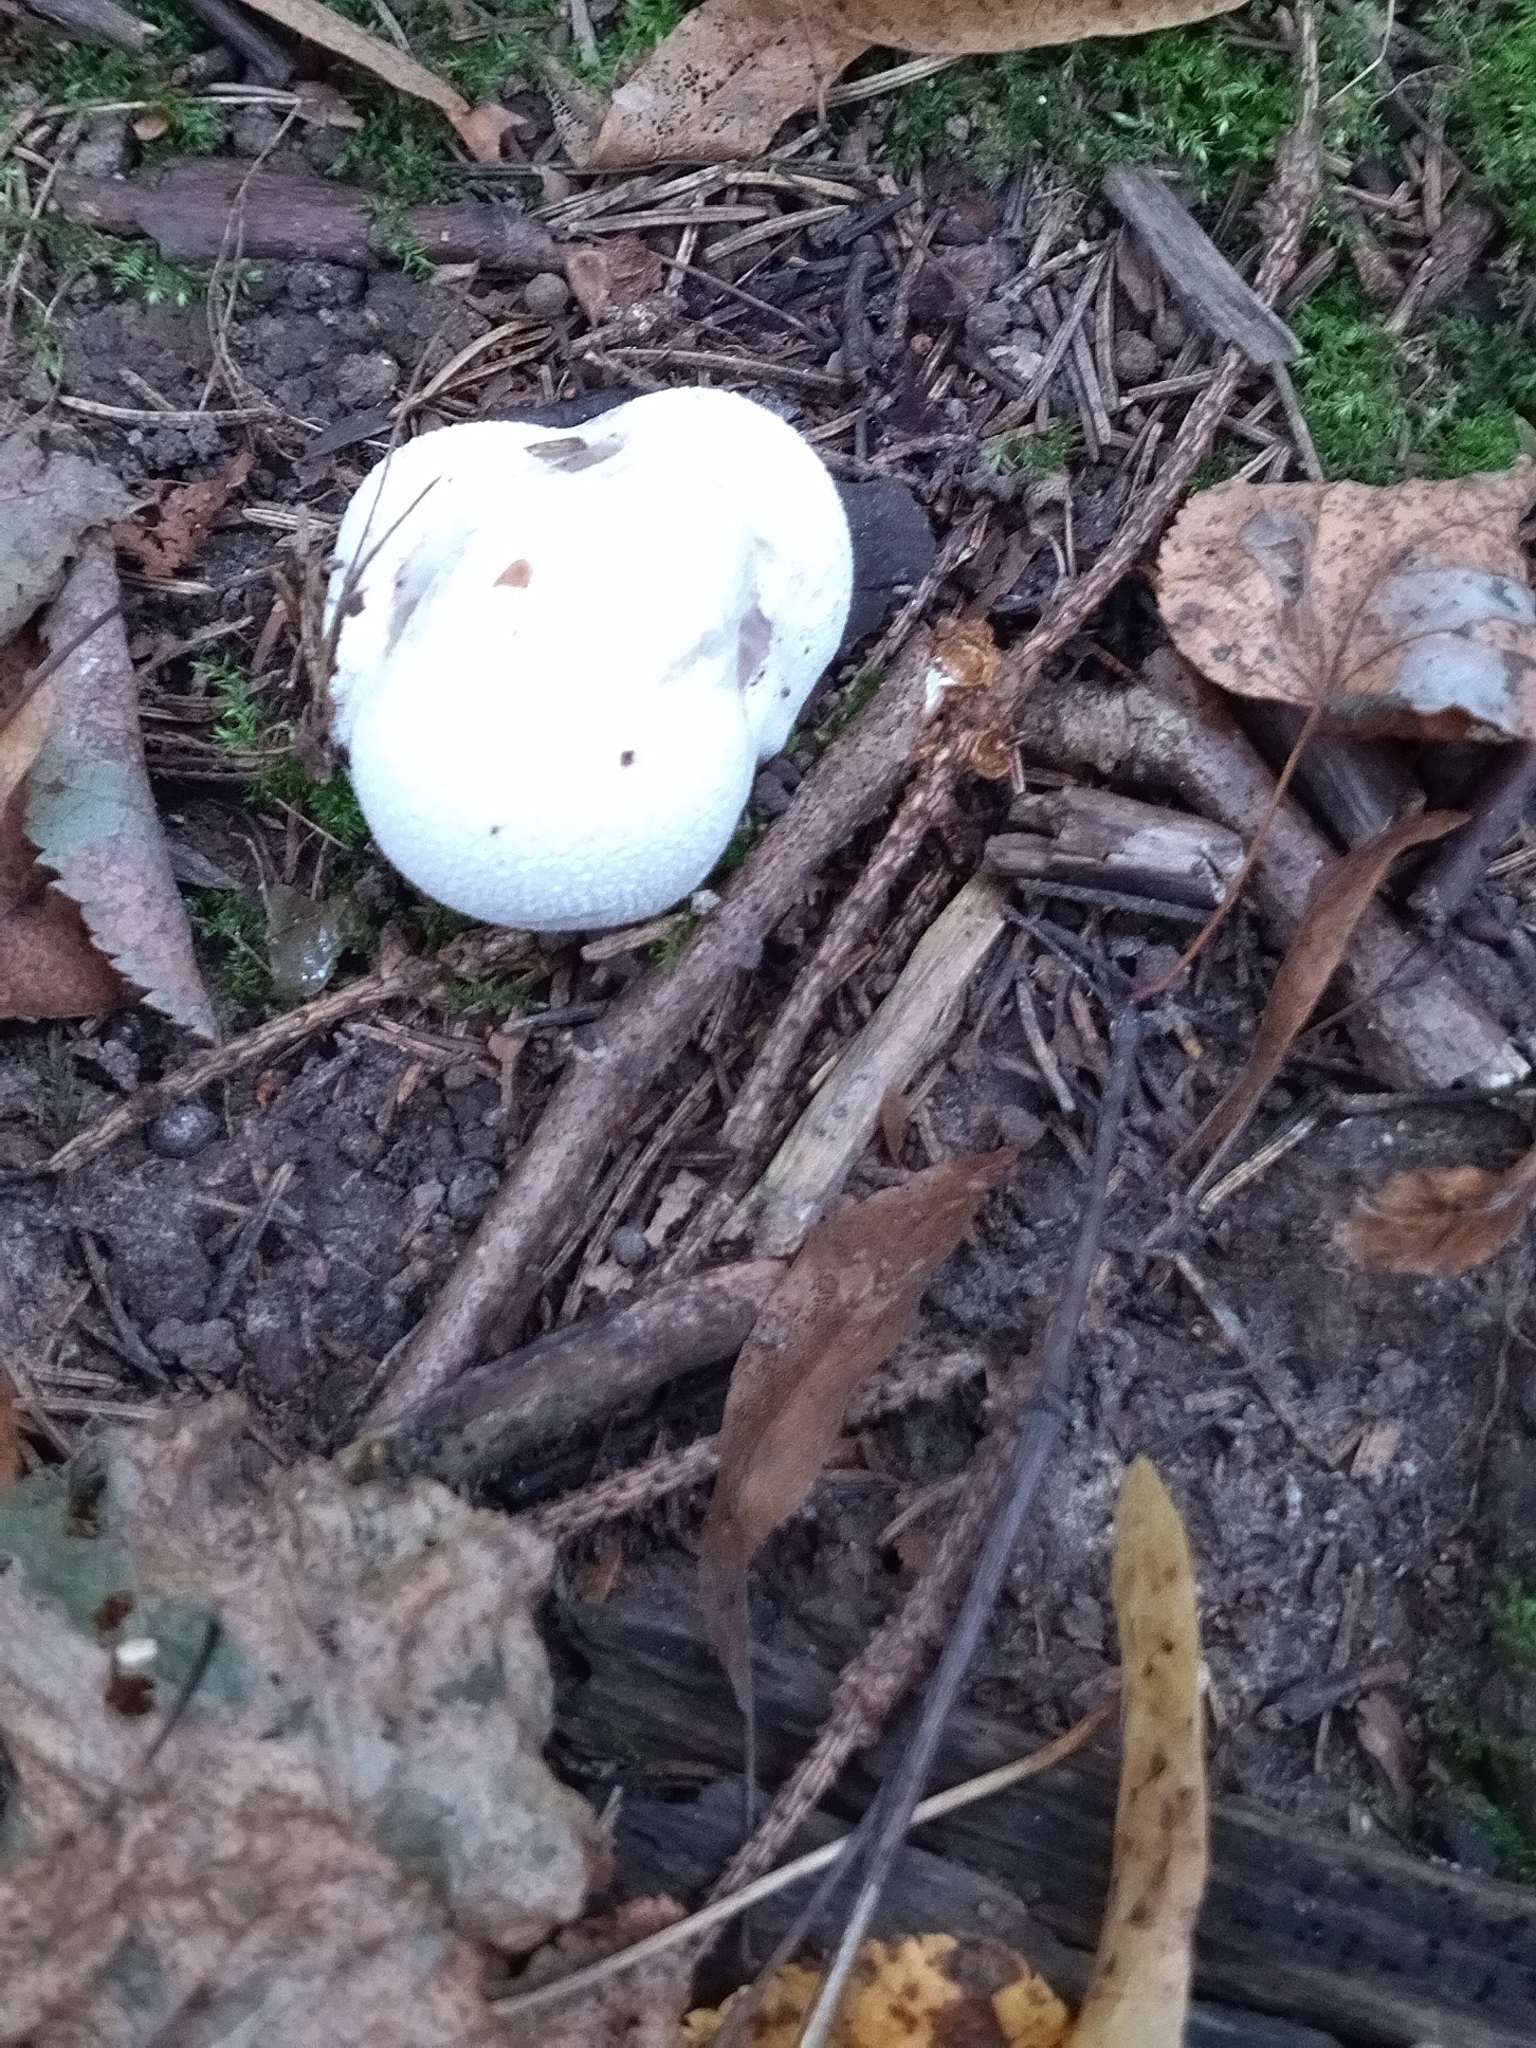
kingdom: Fungi
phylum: Basidiomycota
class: Agaricomycetes
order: Agaricales
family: Lycoperdaceae
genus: Lycoperdon
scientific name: Lycoperdon pratense
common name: Meadow puffball
